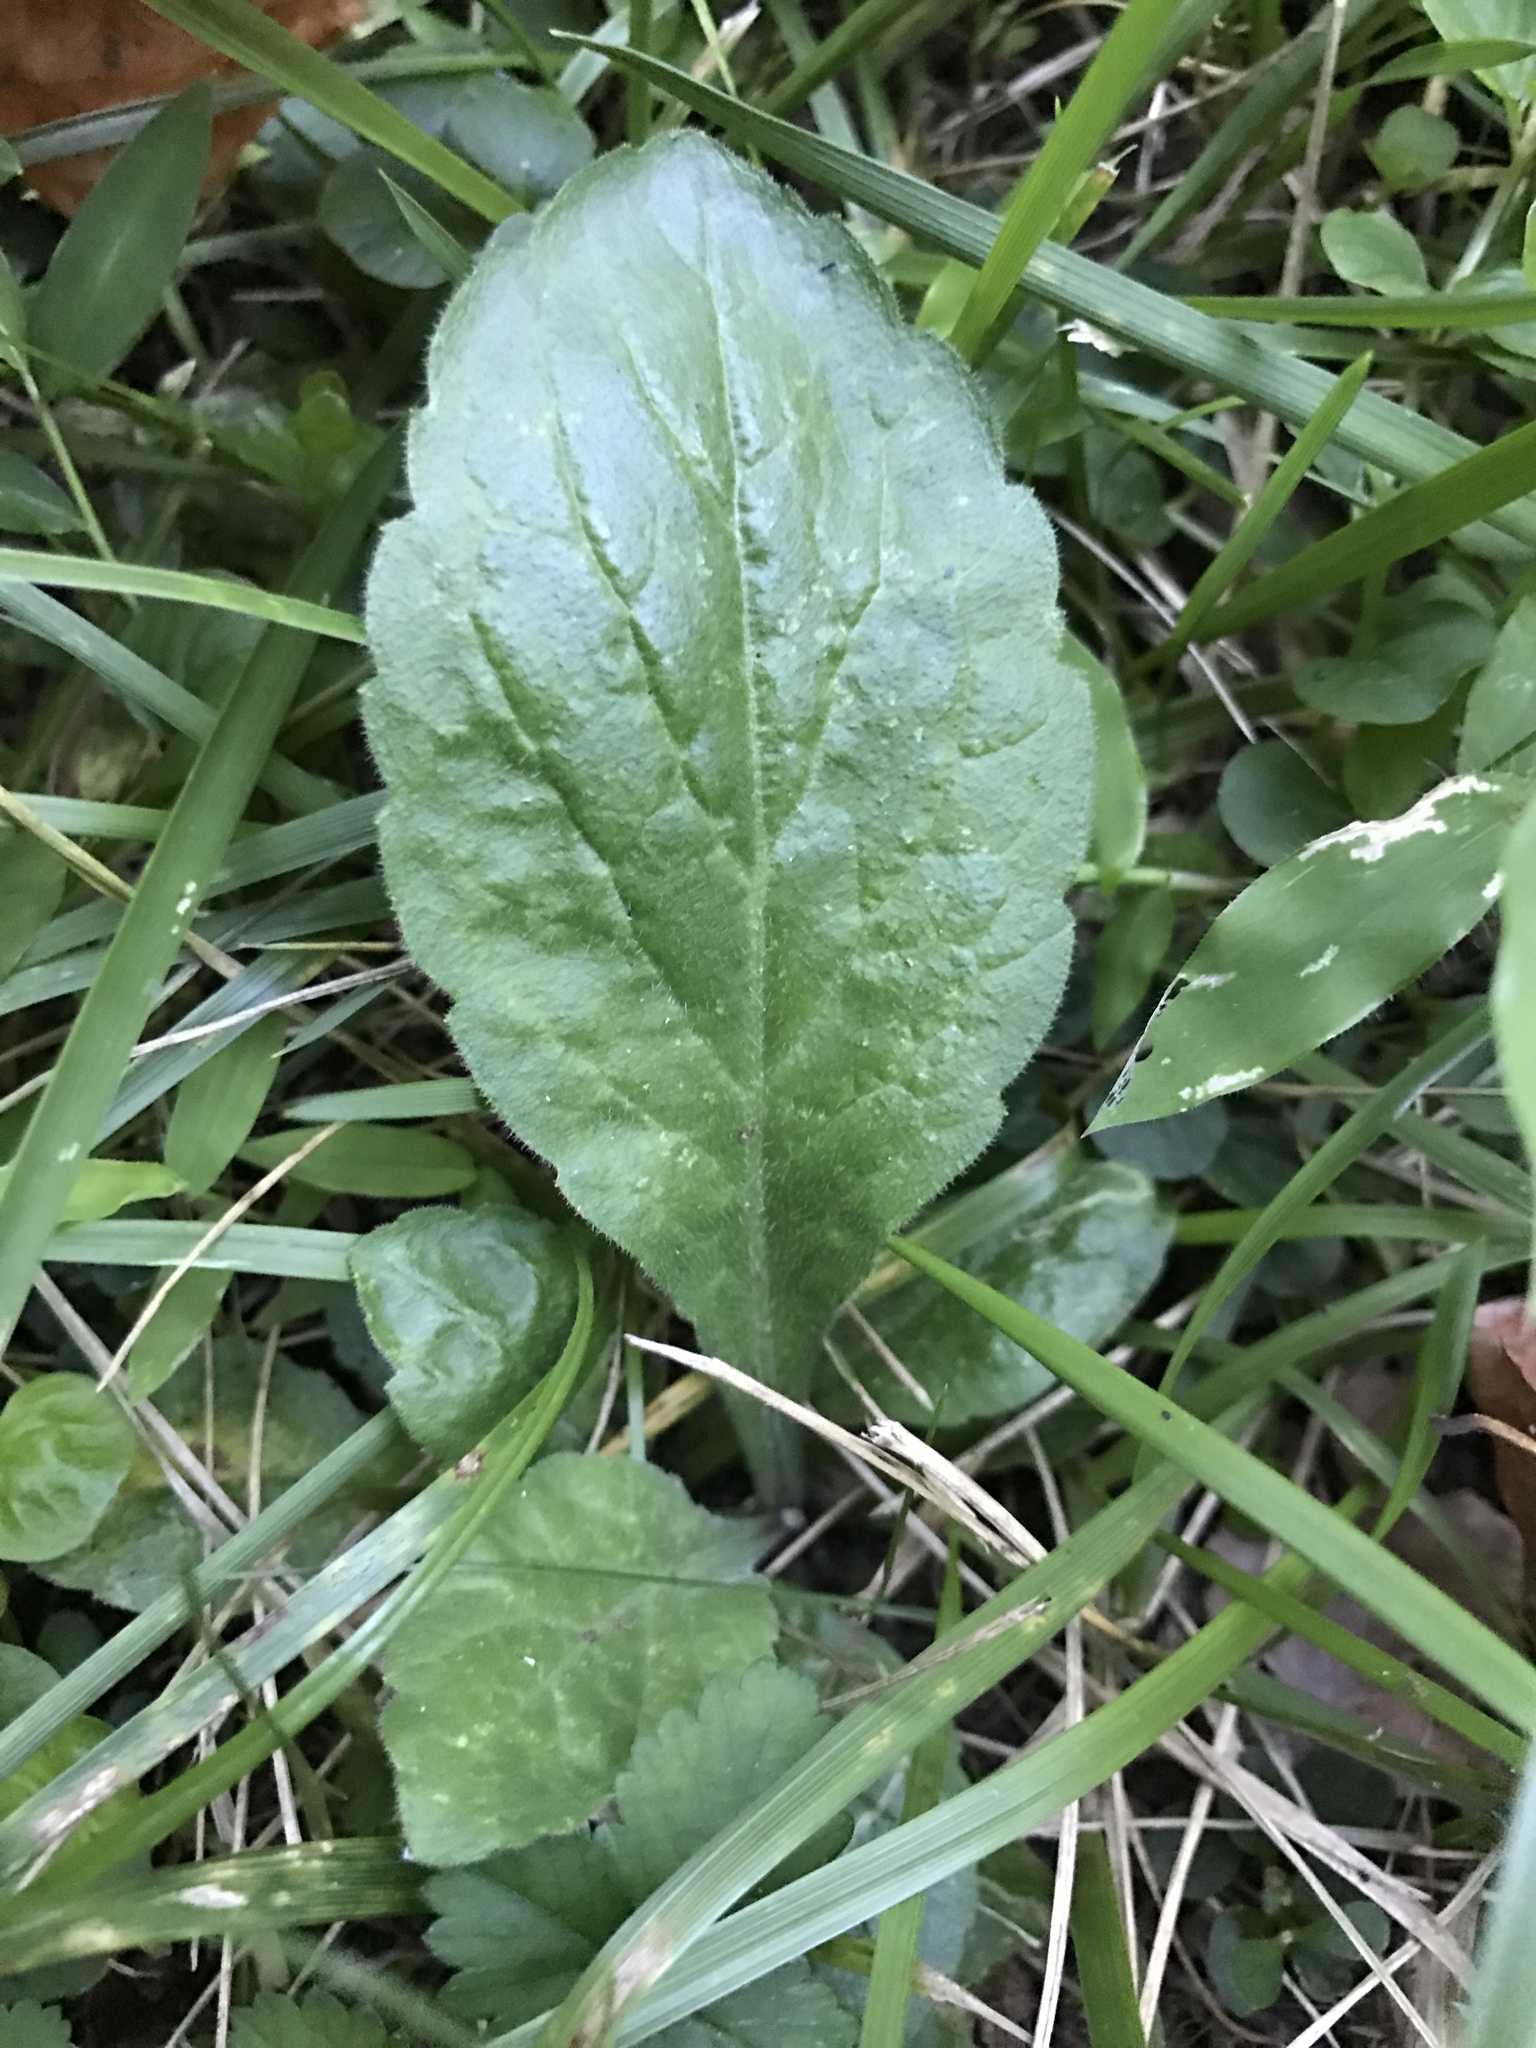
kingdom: Plantae
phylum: Tracheophyta
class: Magnoliopsida
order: Lamiales
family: Lamiaceae
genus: Ajuga
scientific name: Ajuga reptans
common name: Bugle
